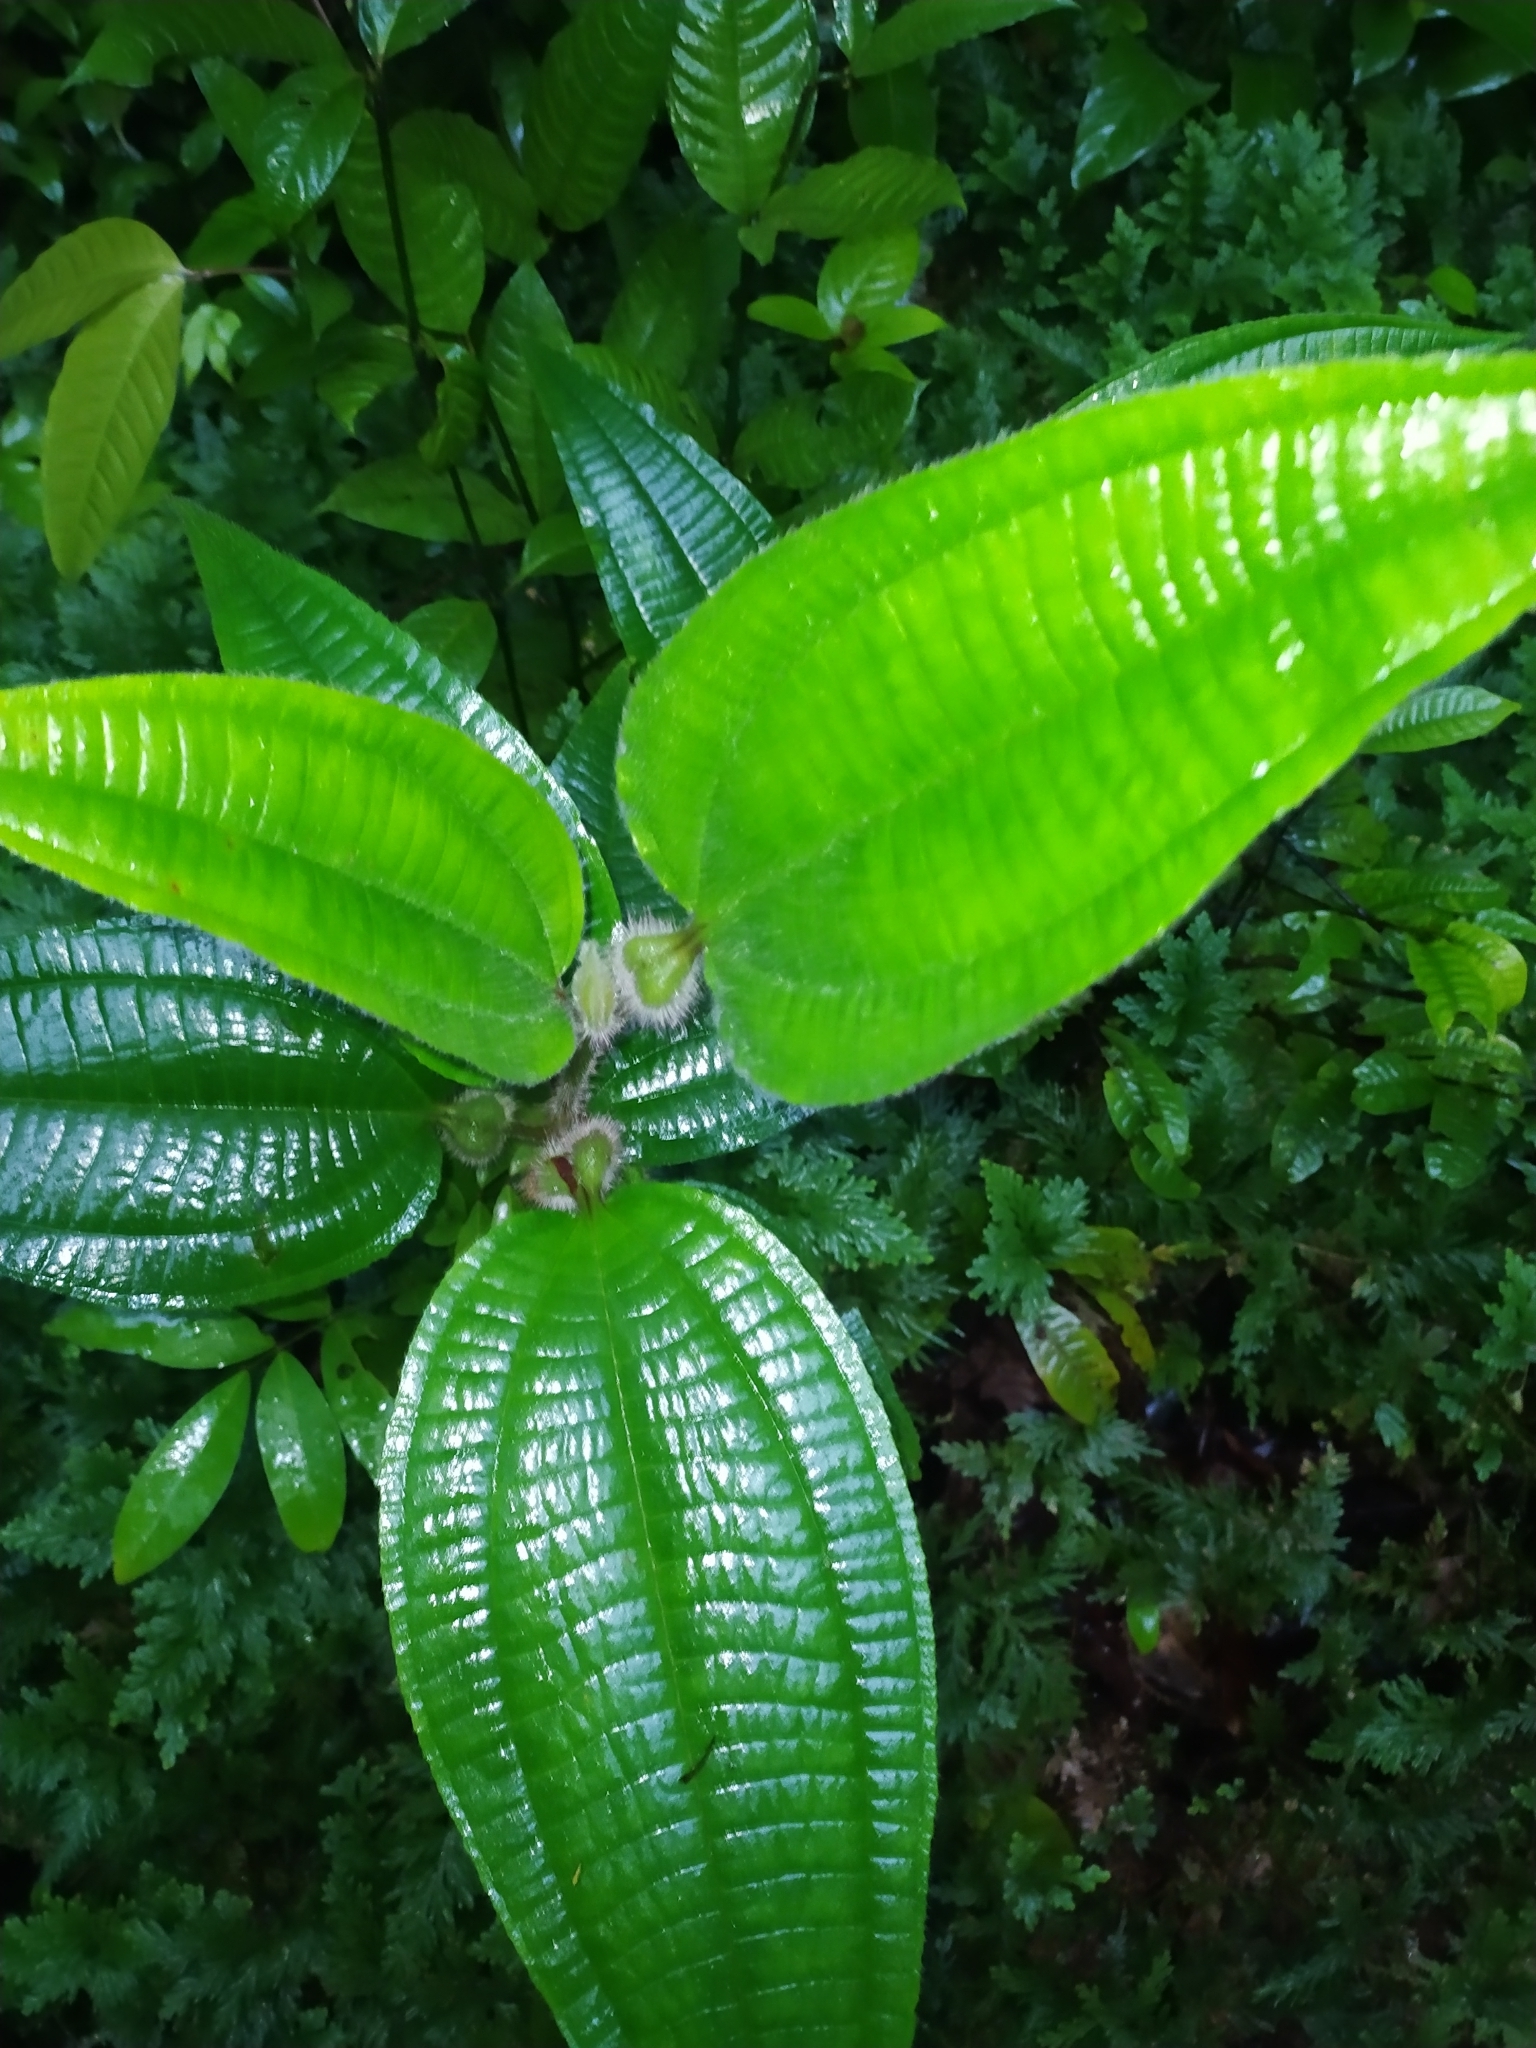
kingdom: Plantae
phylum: Tracheophyta
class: Magnoliopsida
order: Myrtales
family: Melastomataceae
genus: Miconia
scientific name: Miconia tococa
